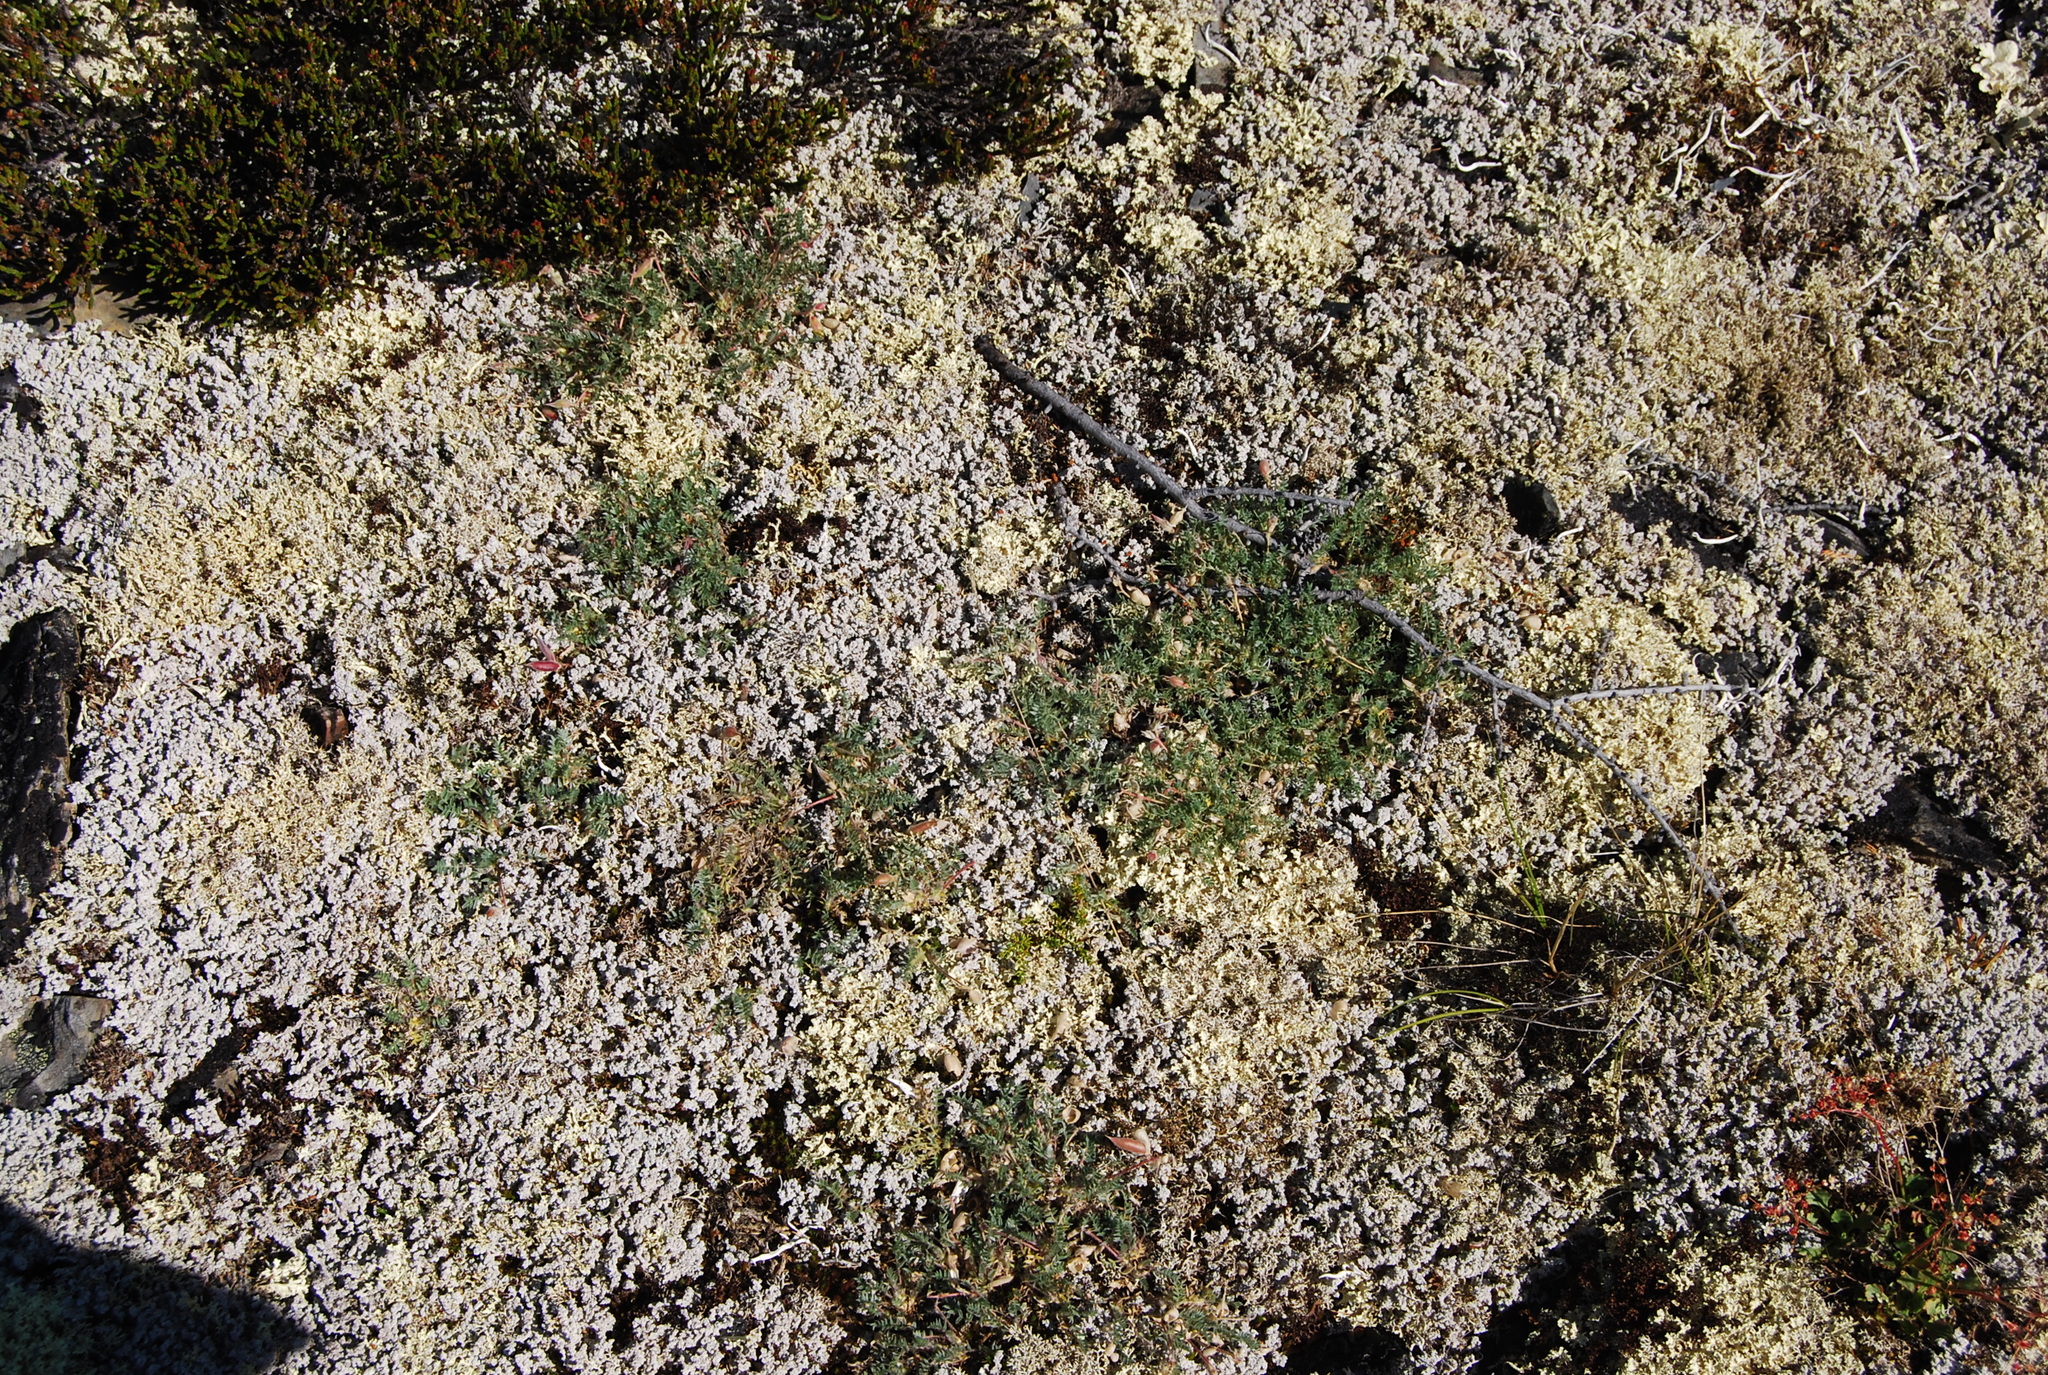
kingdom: Plantae
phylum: Tracheophyta
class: Magnoliopsida
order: Fabales
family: Fabaceae
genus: Oxytropis
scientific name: Oxytropis susumanica
